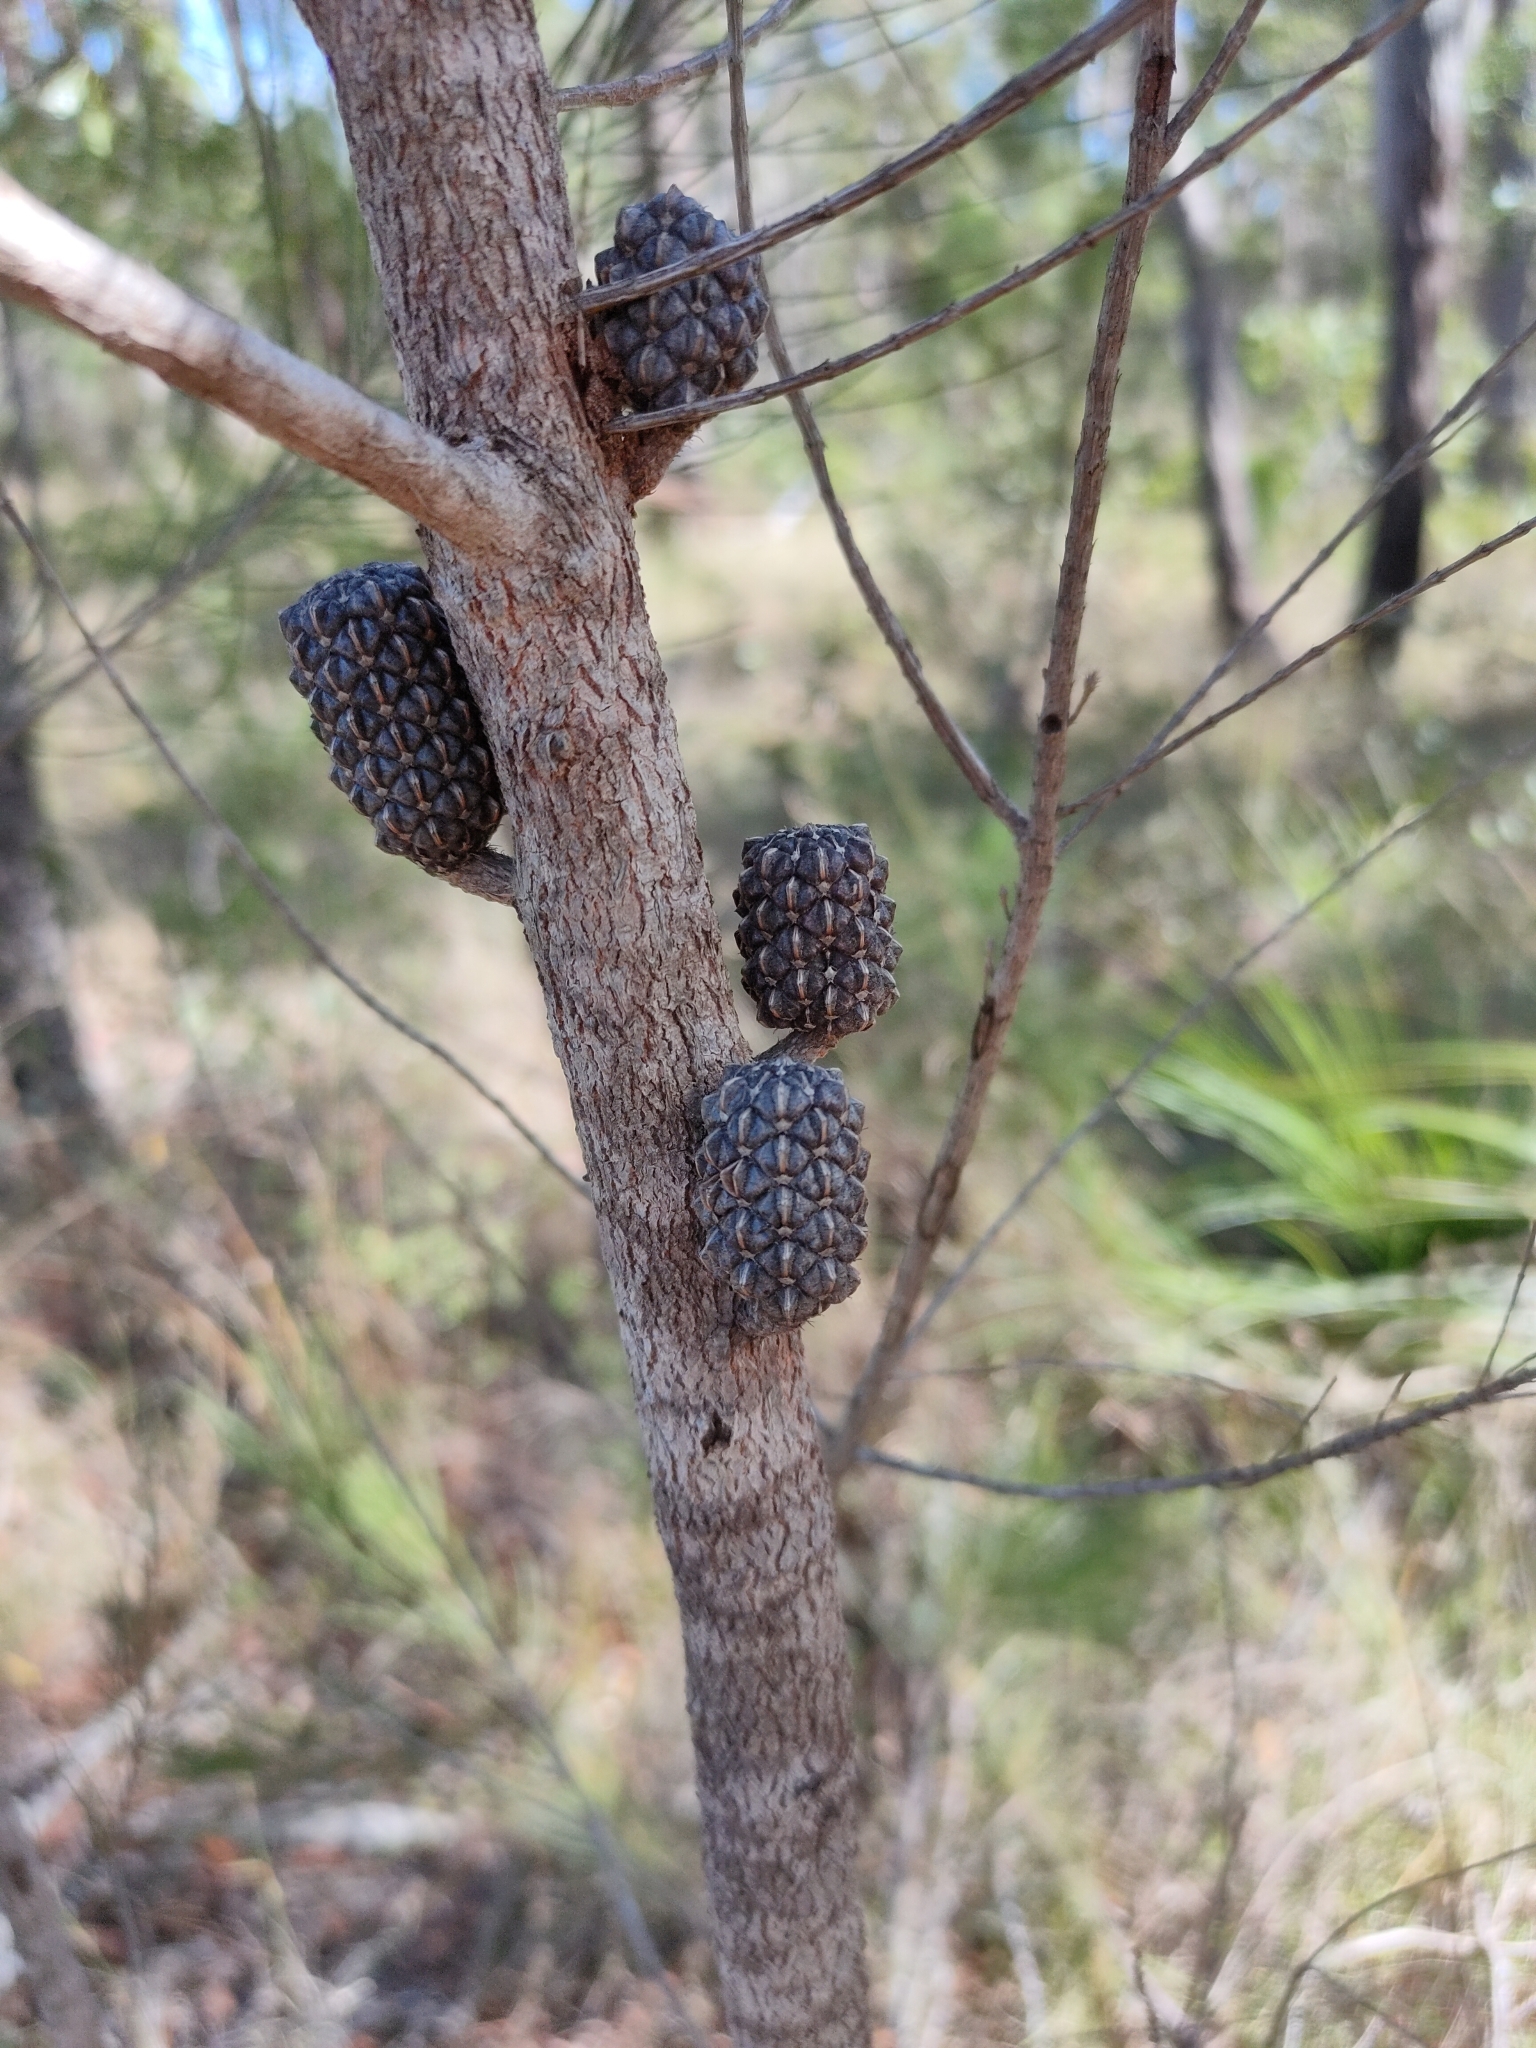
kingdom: Plantae
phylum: Tracheophyta
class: Magnoliopsida
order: Fagales
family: Casuarinaceae
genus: Allocasuarina
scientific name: Allocasuarina littoralis
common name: Black she-oak
